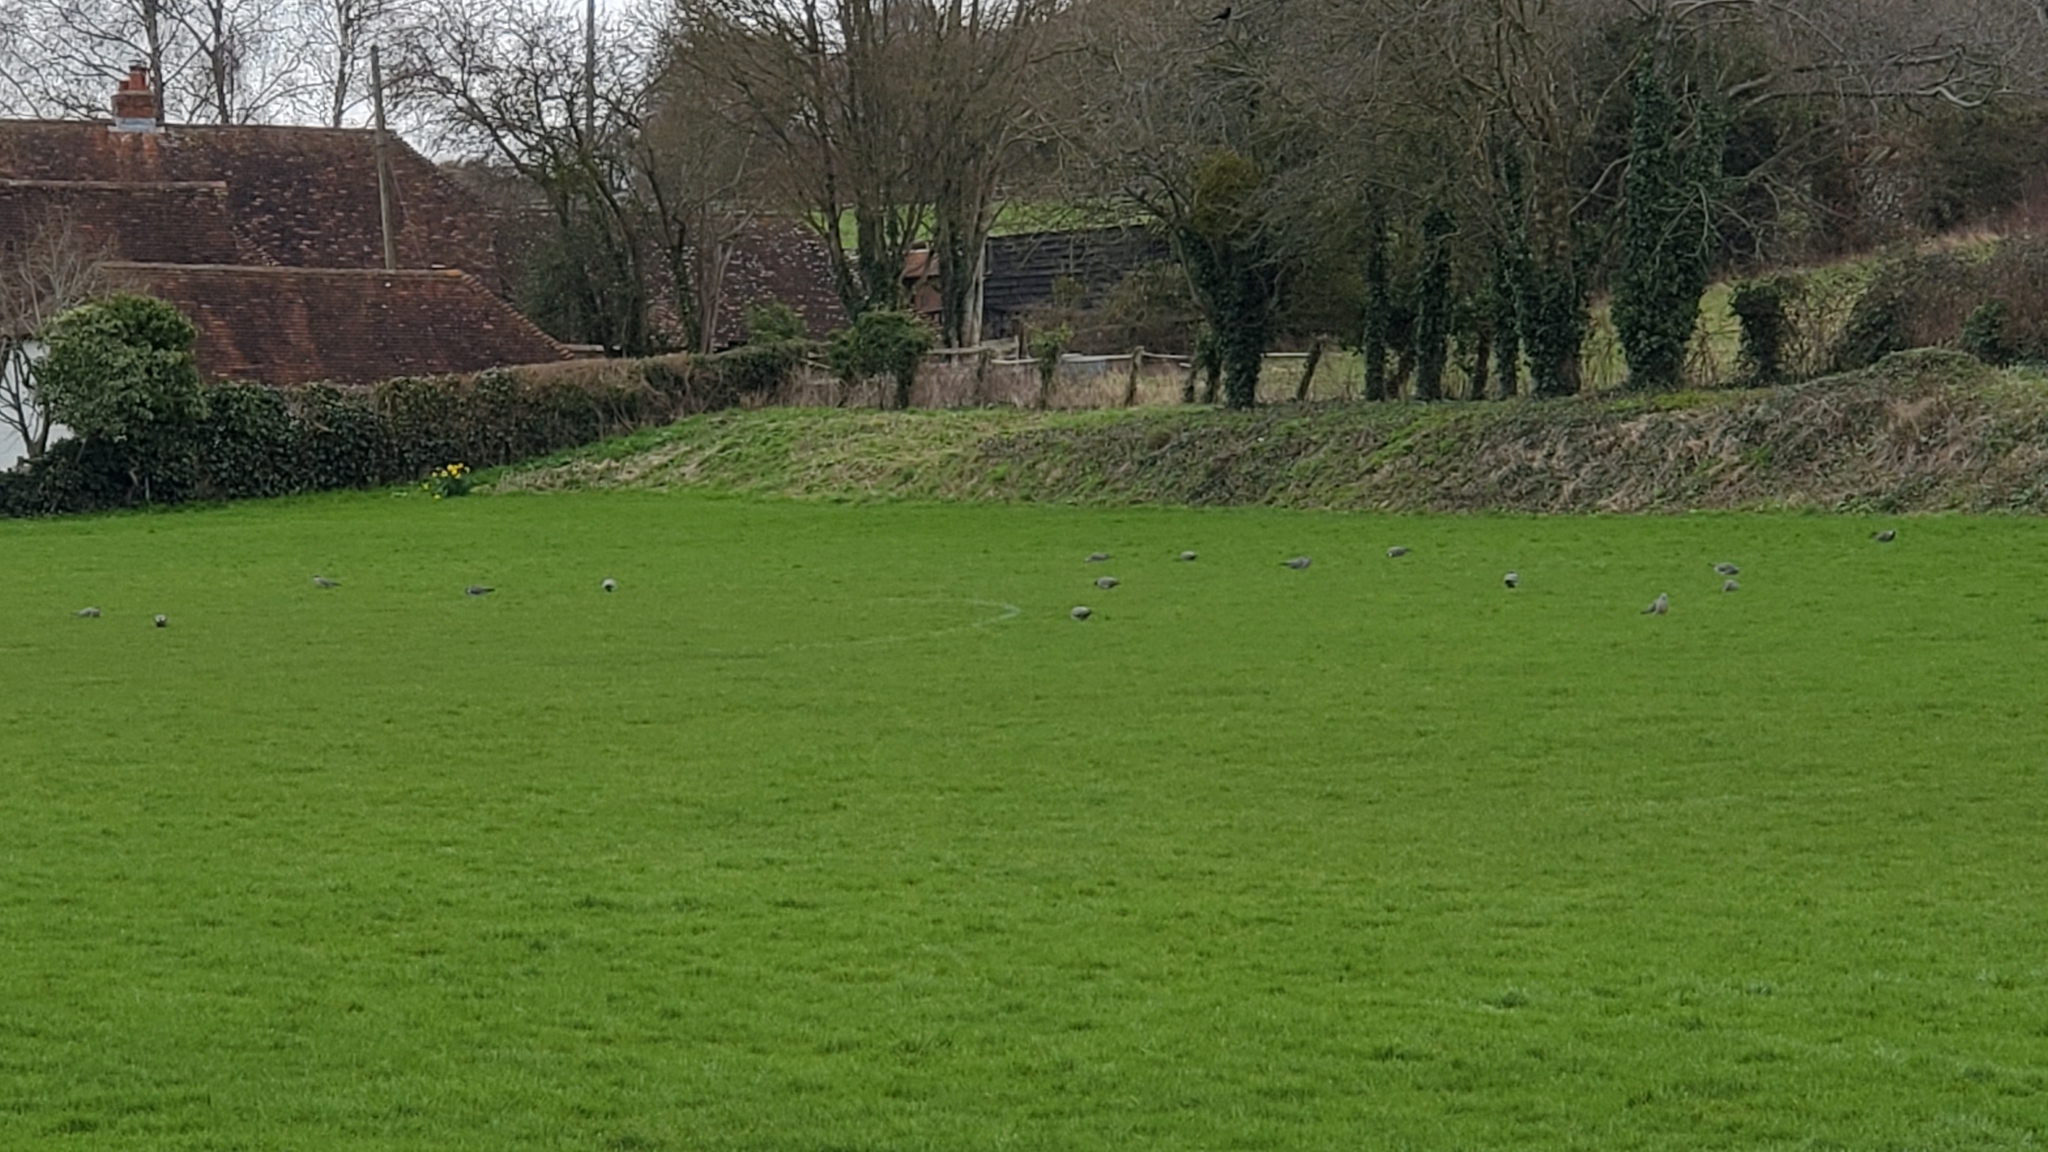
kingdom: Animalia
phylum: Chordata
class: Aves
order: Columbiformes
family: Columbidae
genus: Columba
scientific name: Columba palumbus
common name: Common wood pigeon
